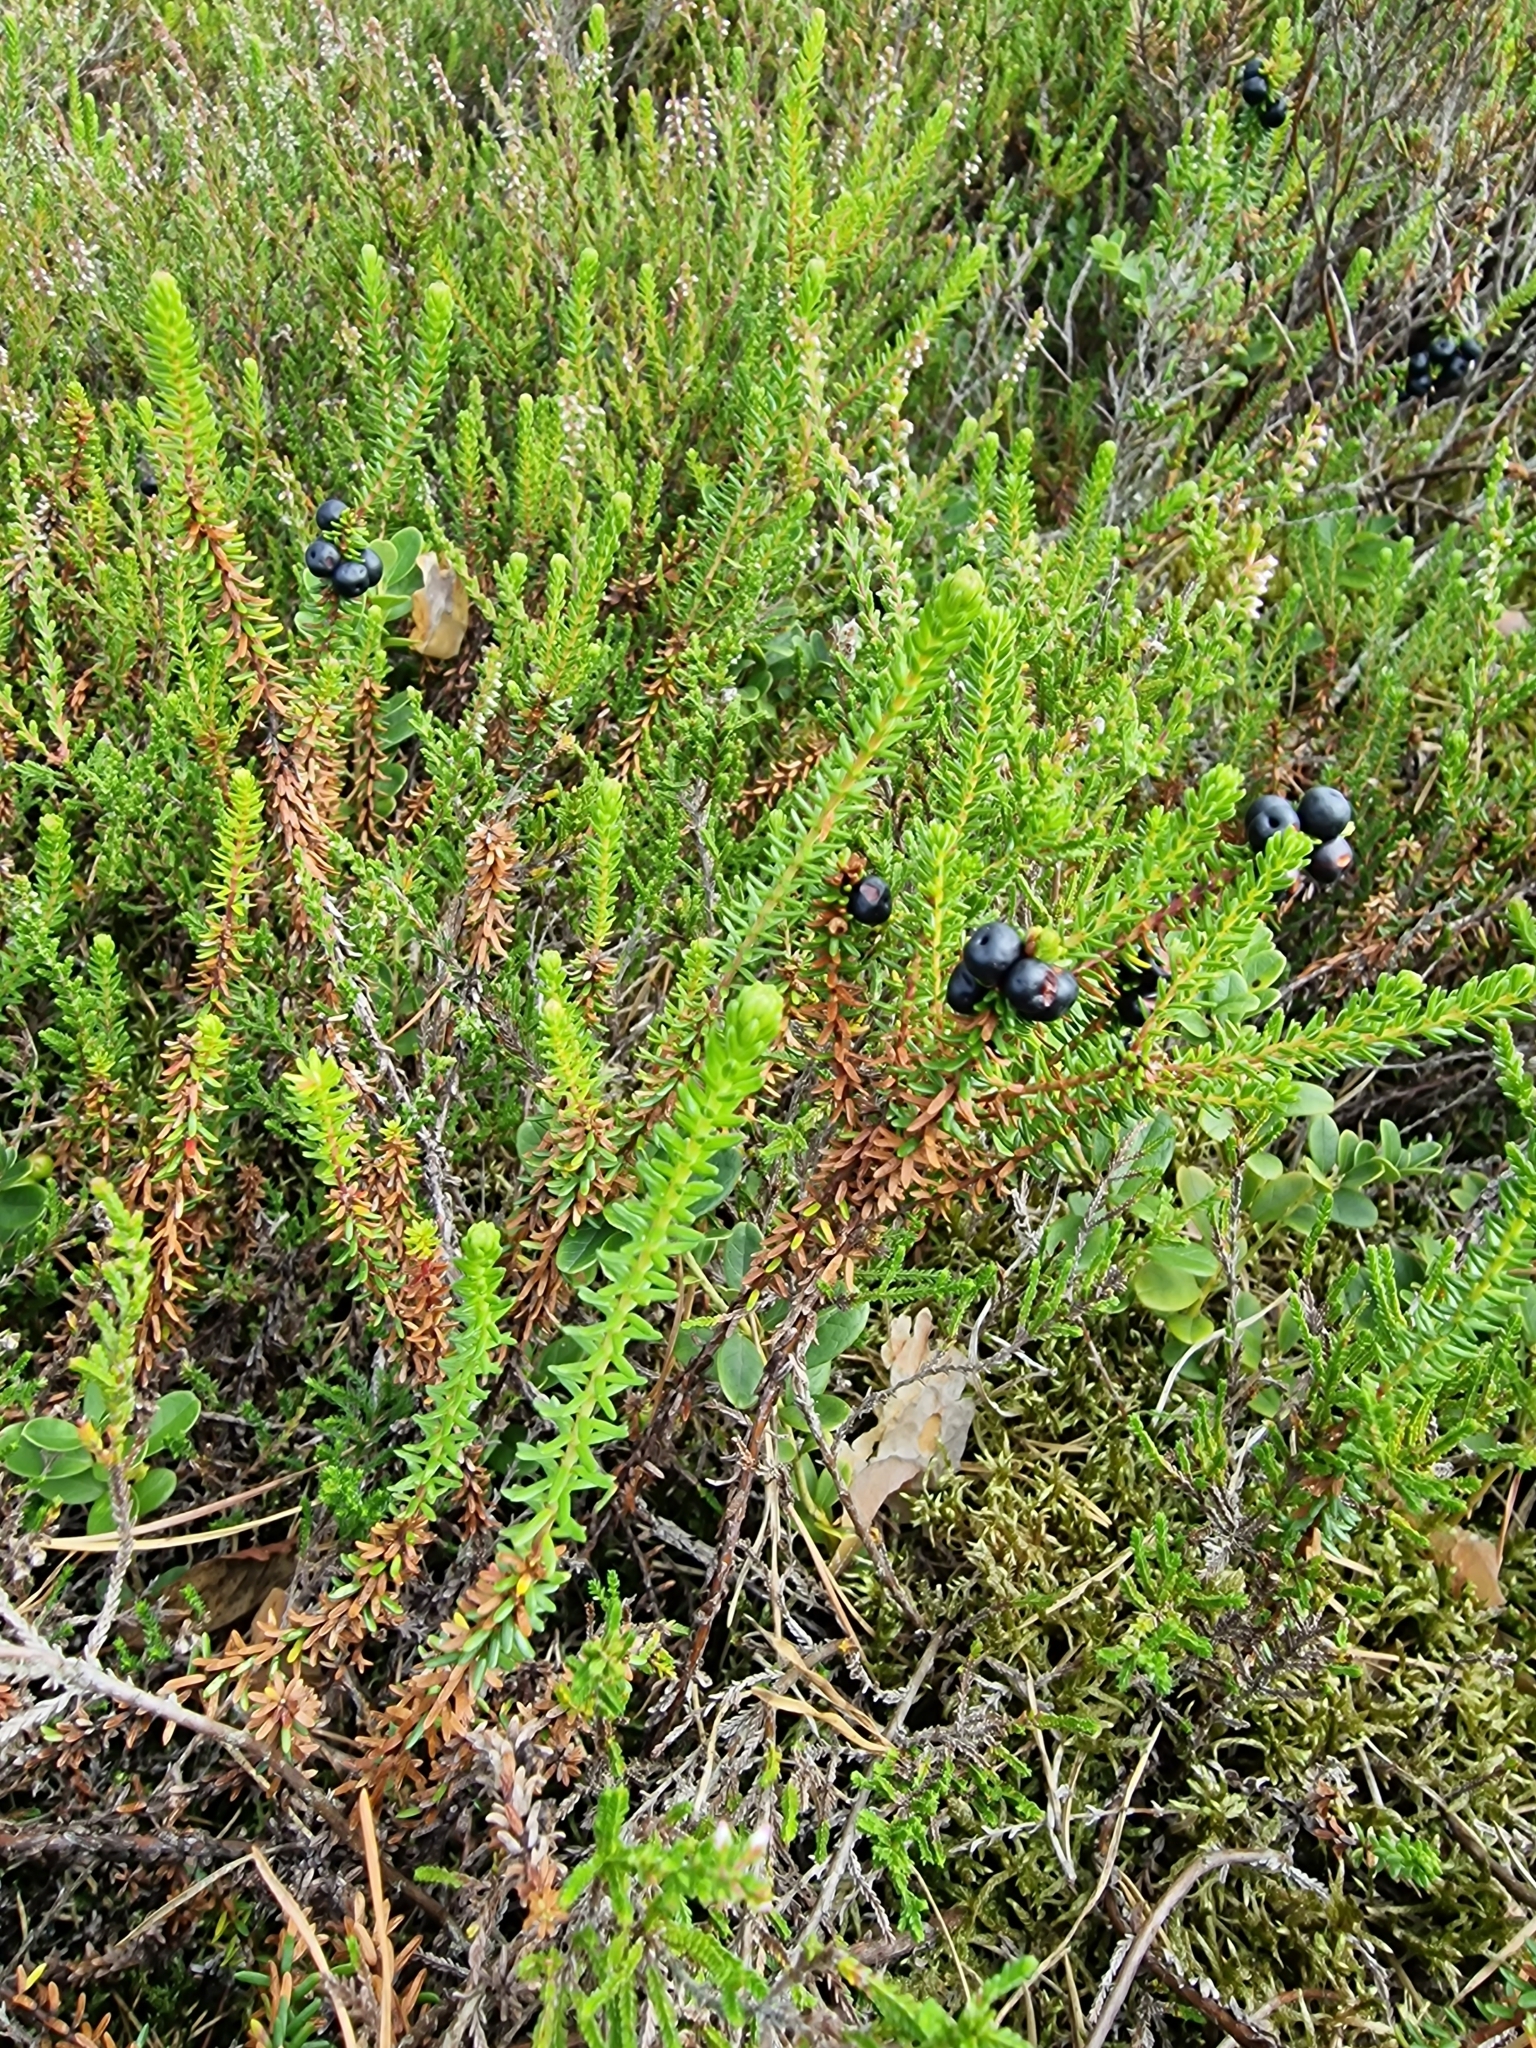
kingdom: Plantae
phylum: Tracheophyta
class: Magnoliopsida
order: Ericales
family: Ericaceae
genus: Empetrum
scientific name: Empetrum nigrum
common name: Black crowberry
